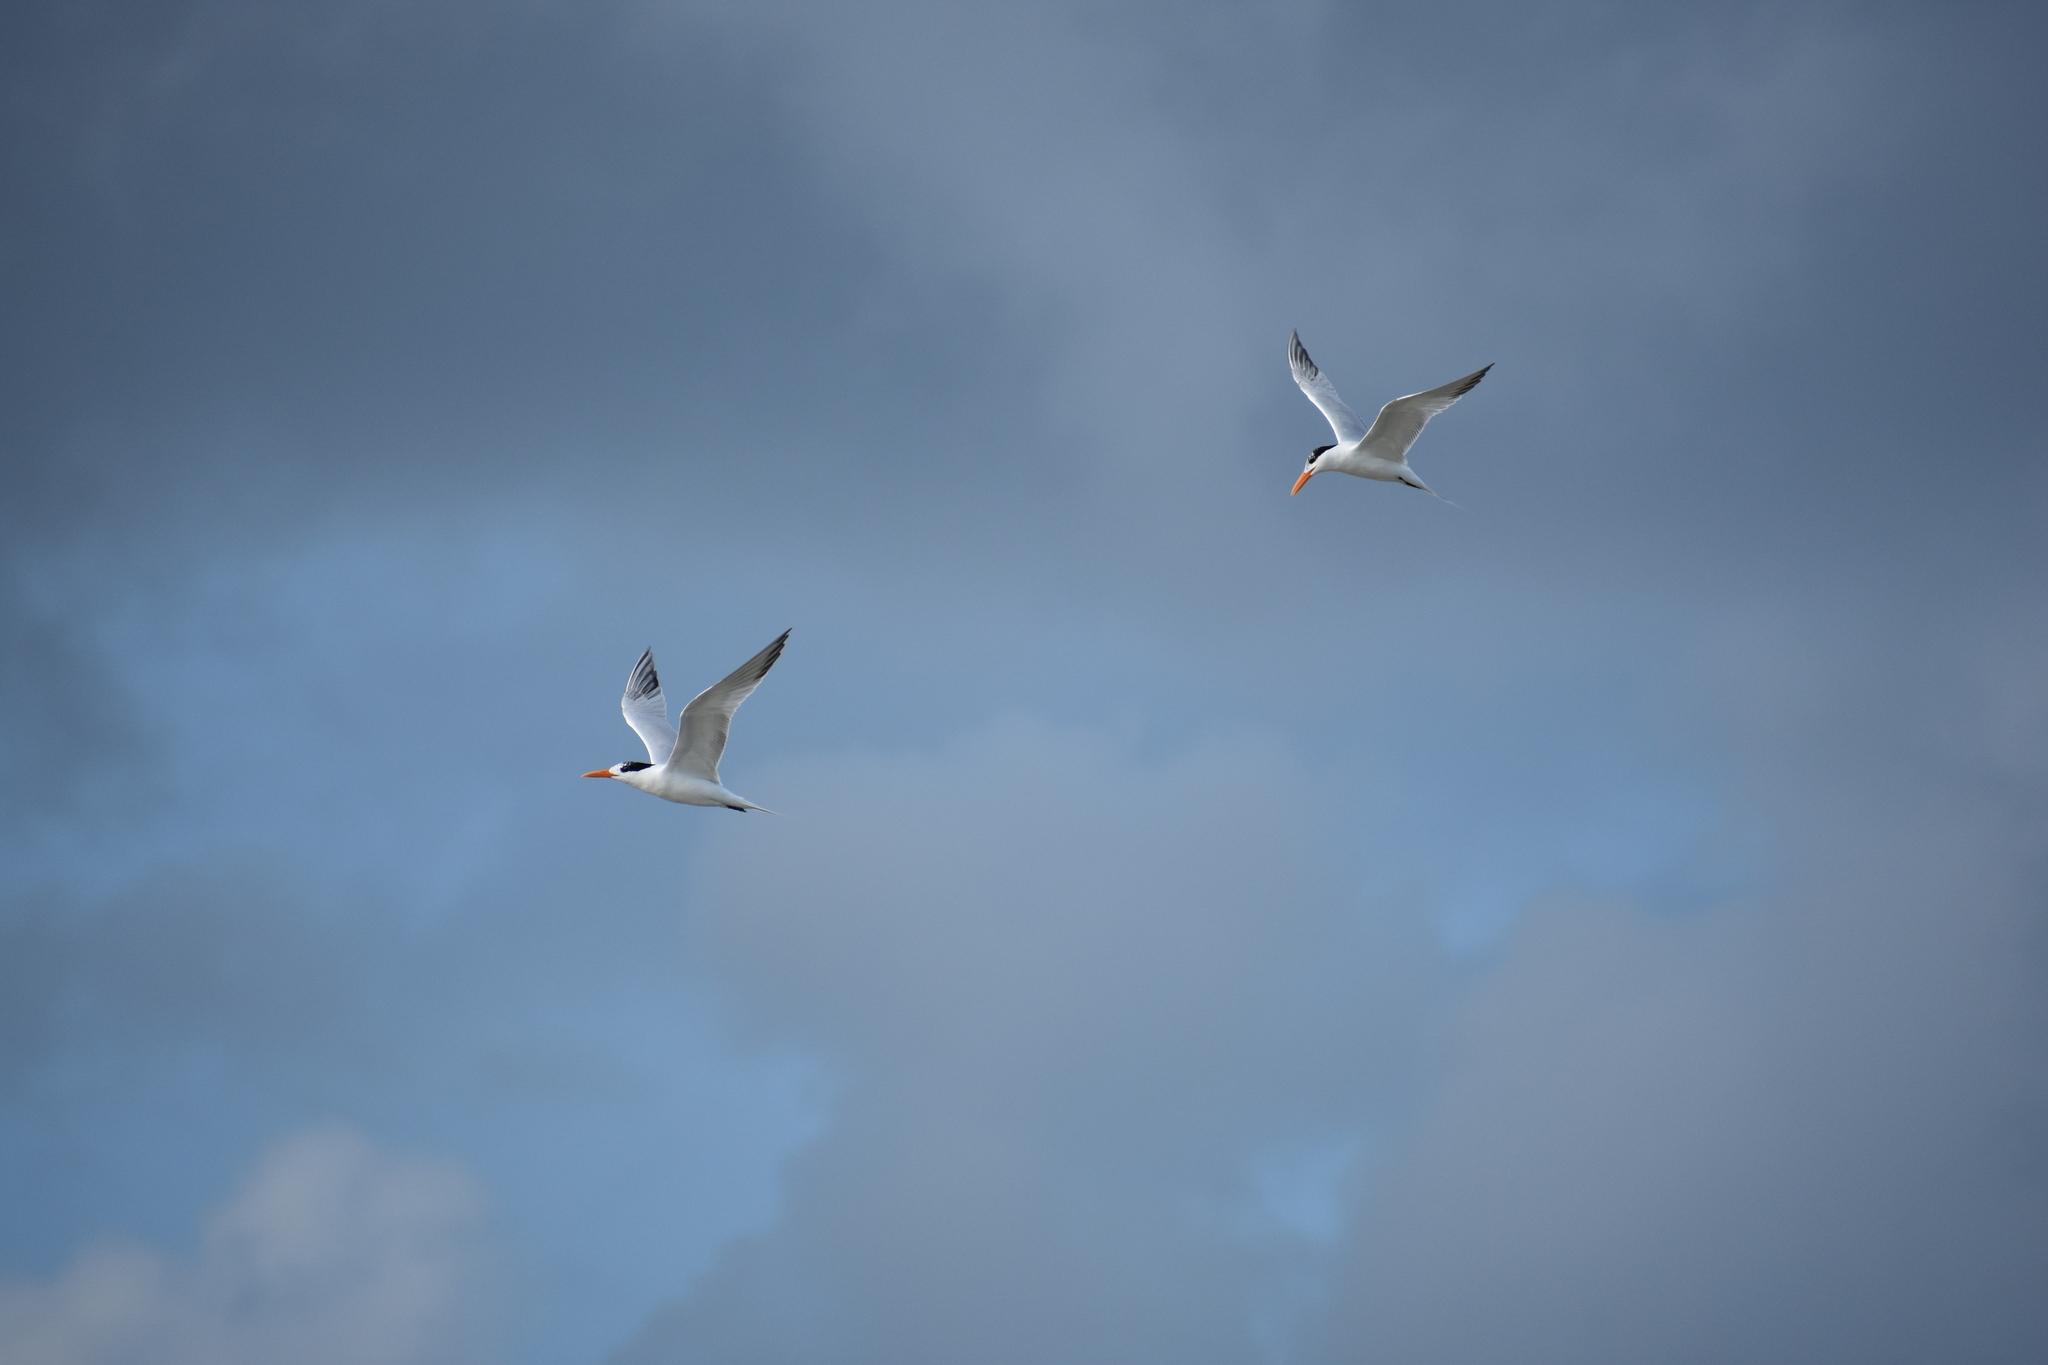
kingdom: Animalia
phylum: Chordata
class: Aves
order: Charadriiformes
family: Laridae
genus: Thalasseus
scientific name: Thalasseus maximus
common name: Royal tern
